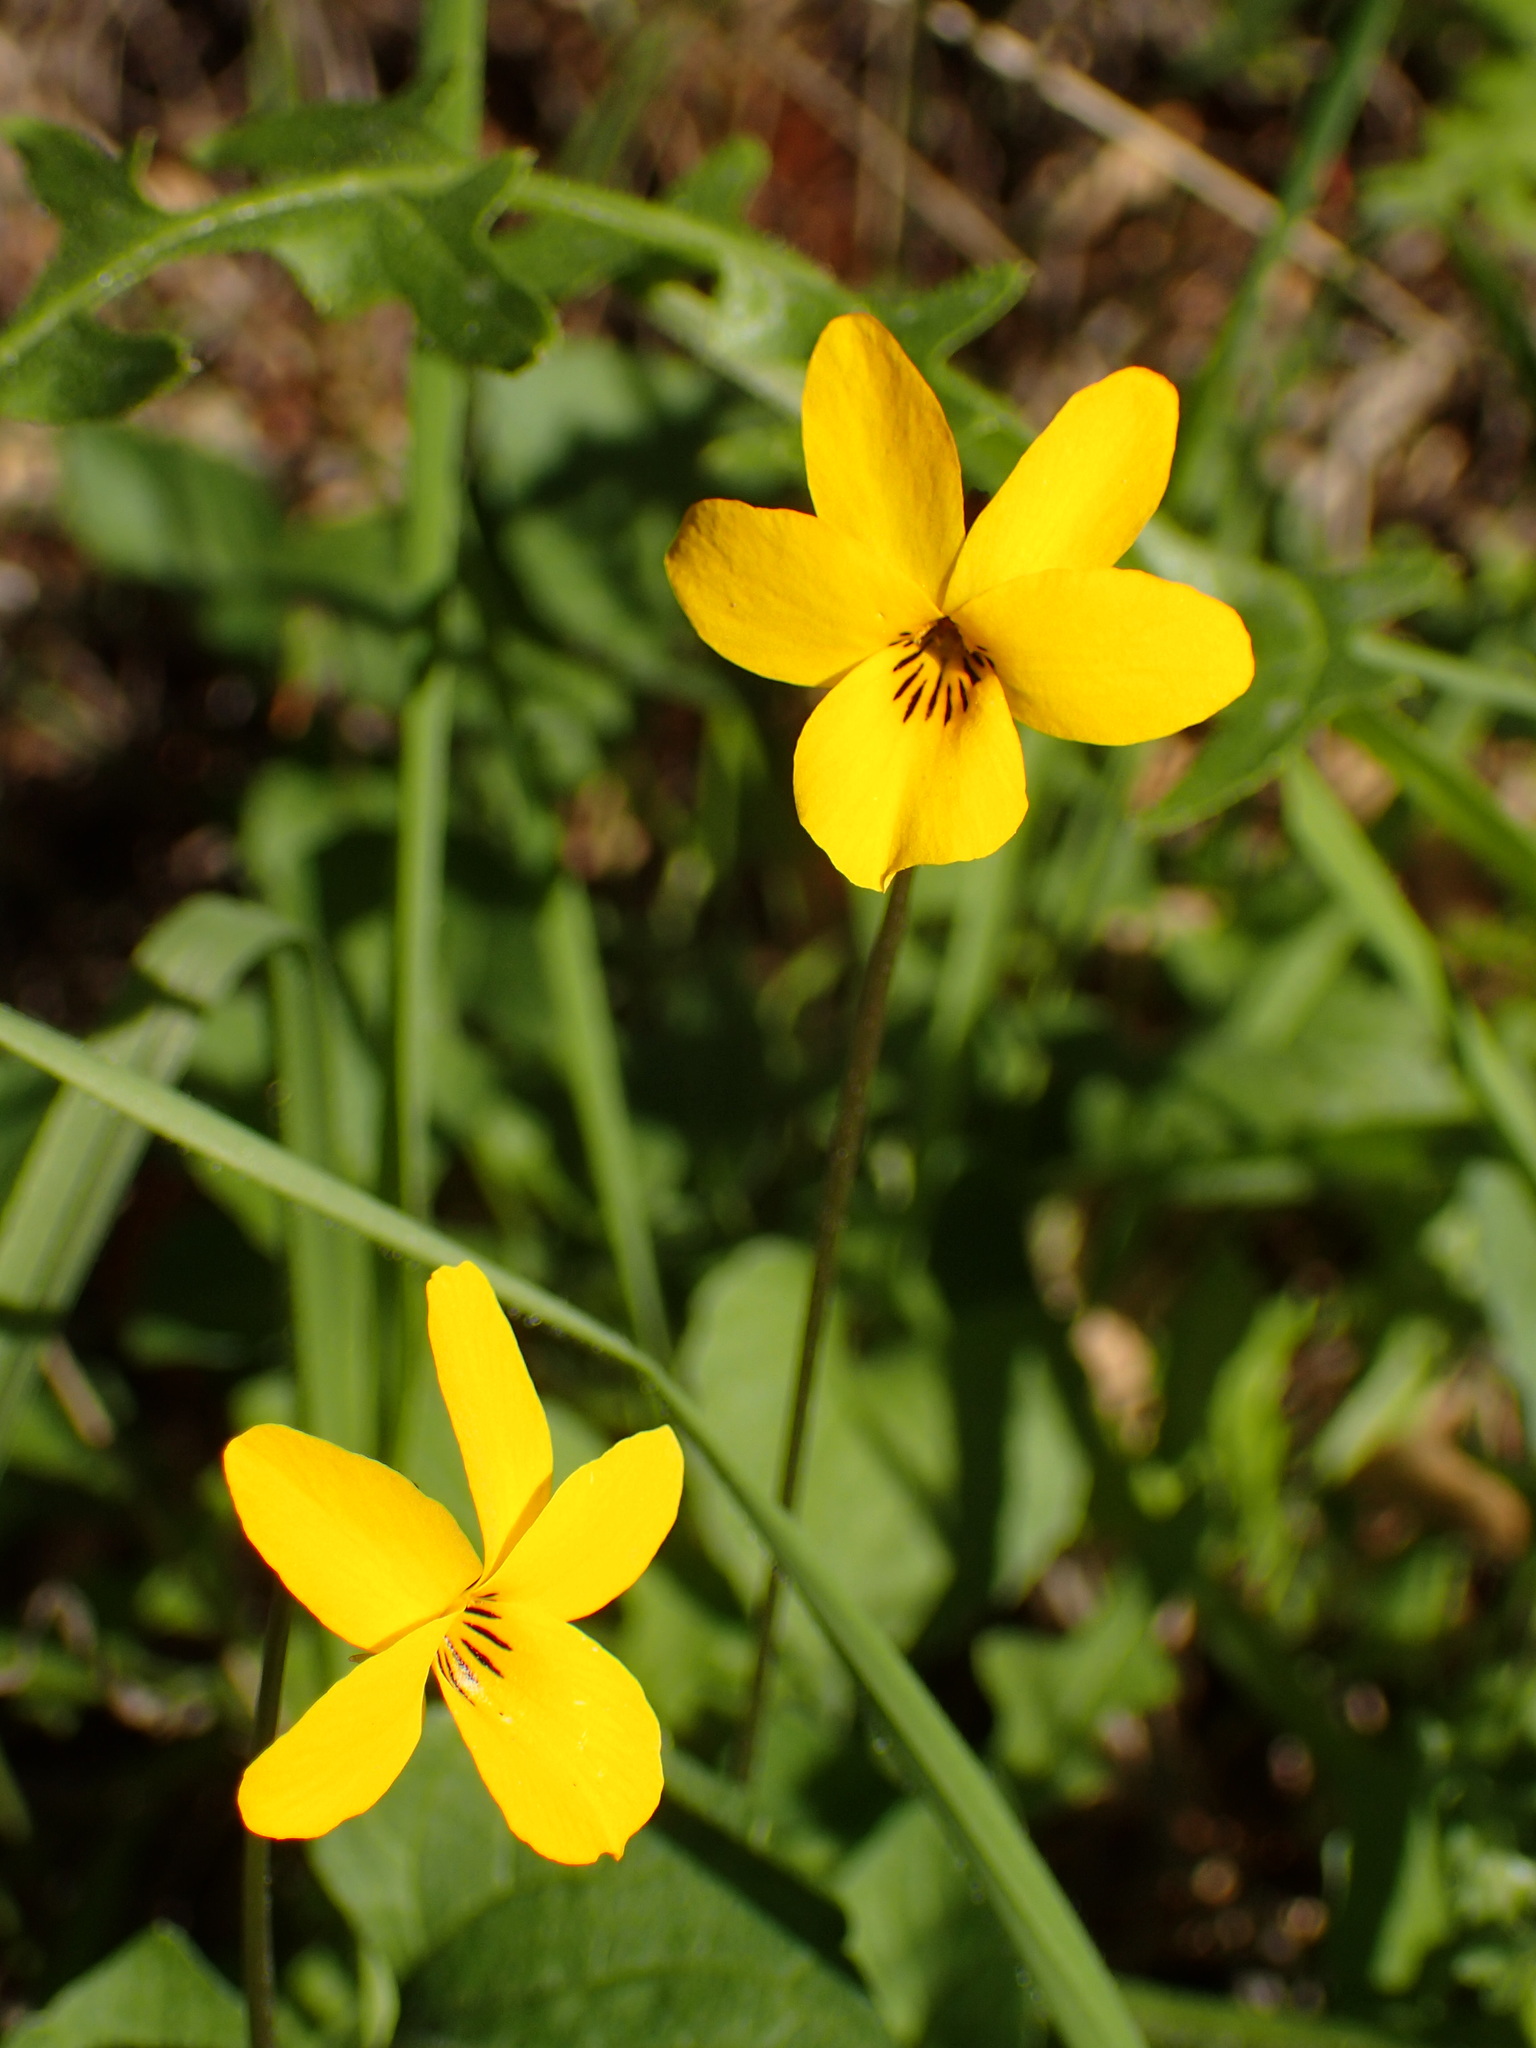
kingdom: Plantae
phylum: Tracheophyta
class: Magnoliopsida
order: Malpighiales
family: Violaceae
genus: Viola
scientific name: Viola pedunculata
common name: California golden violet
